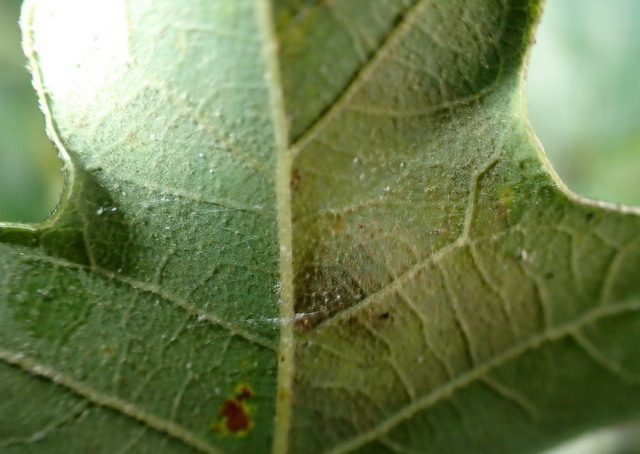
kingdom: Animalia
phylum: Arthropoda
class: Insecta
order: Lepidoptera
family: Tischeriidae
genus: Tischeria
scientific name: Tischeria quercitella
